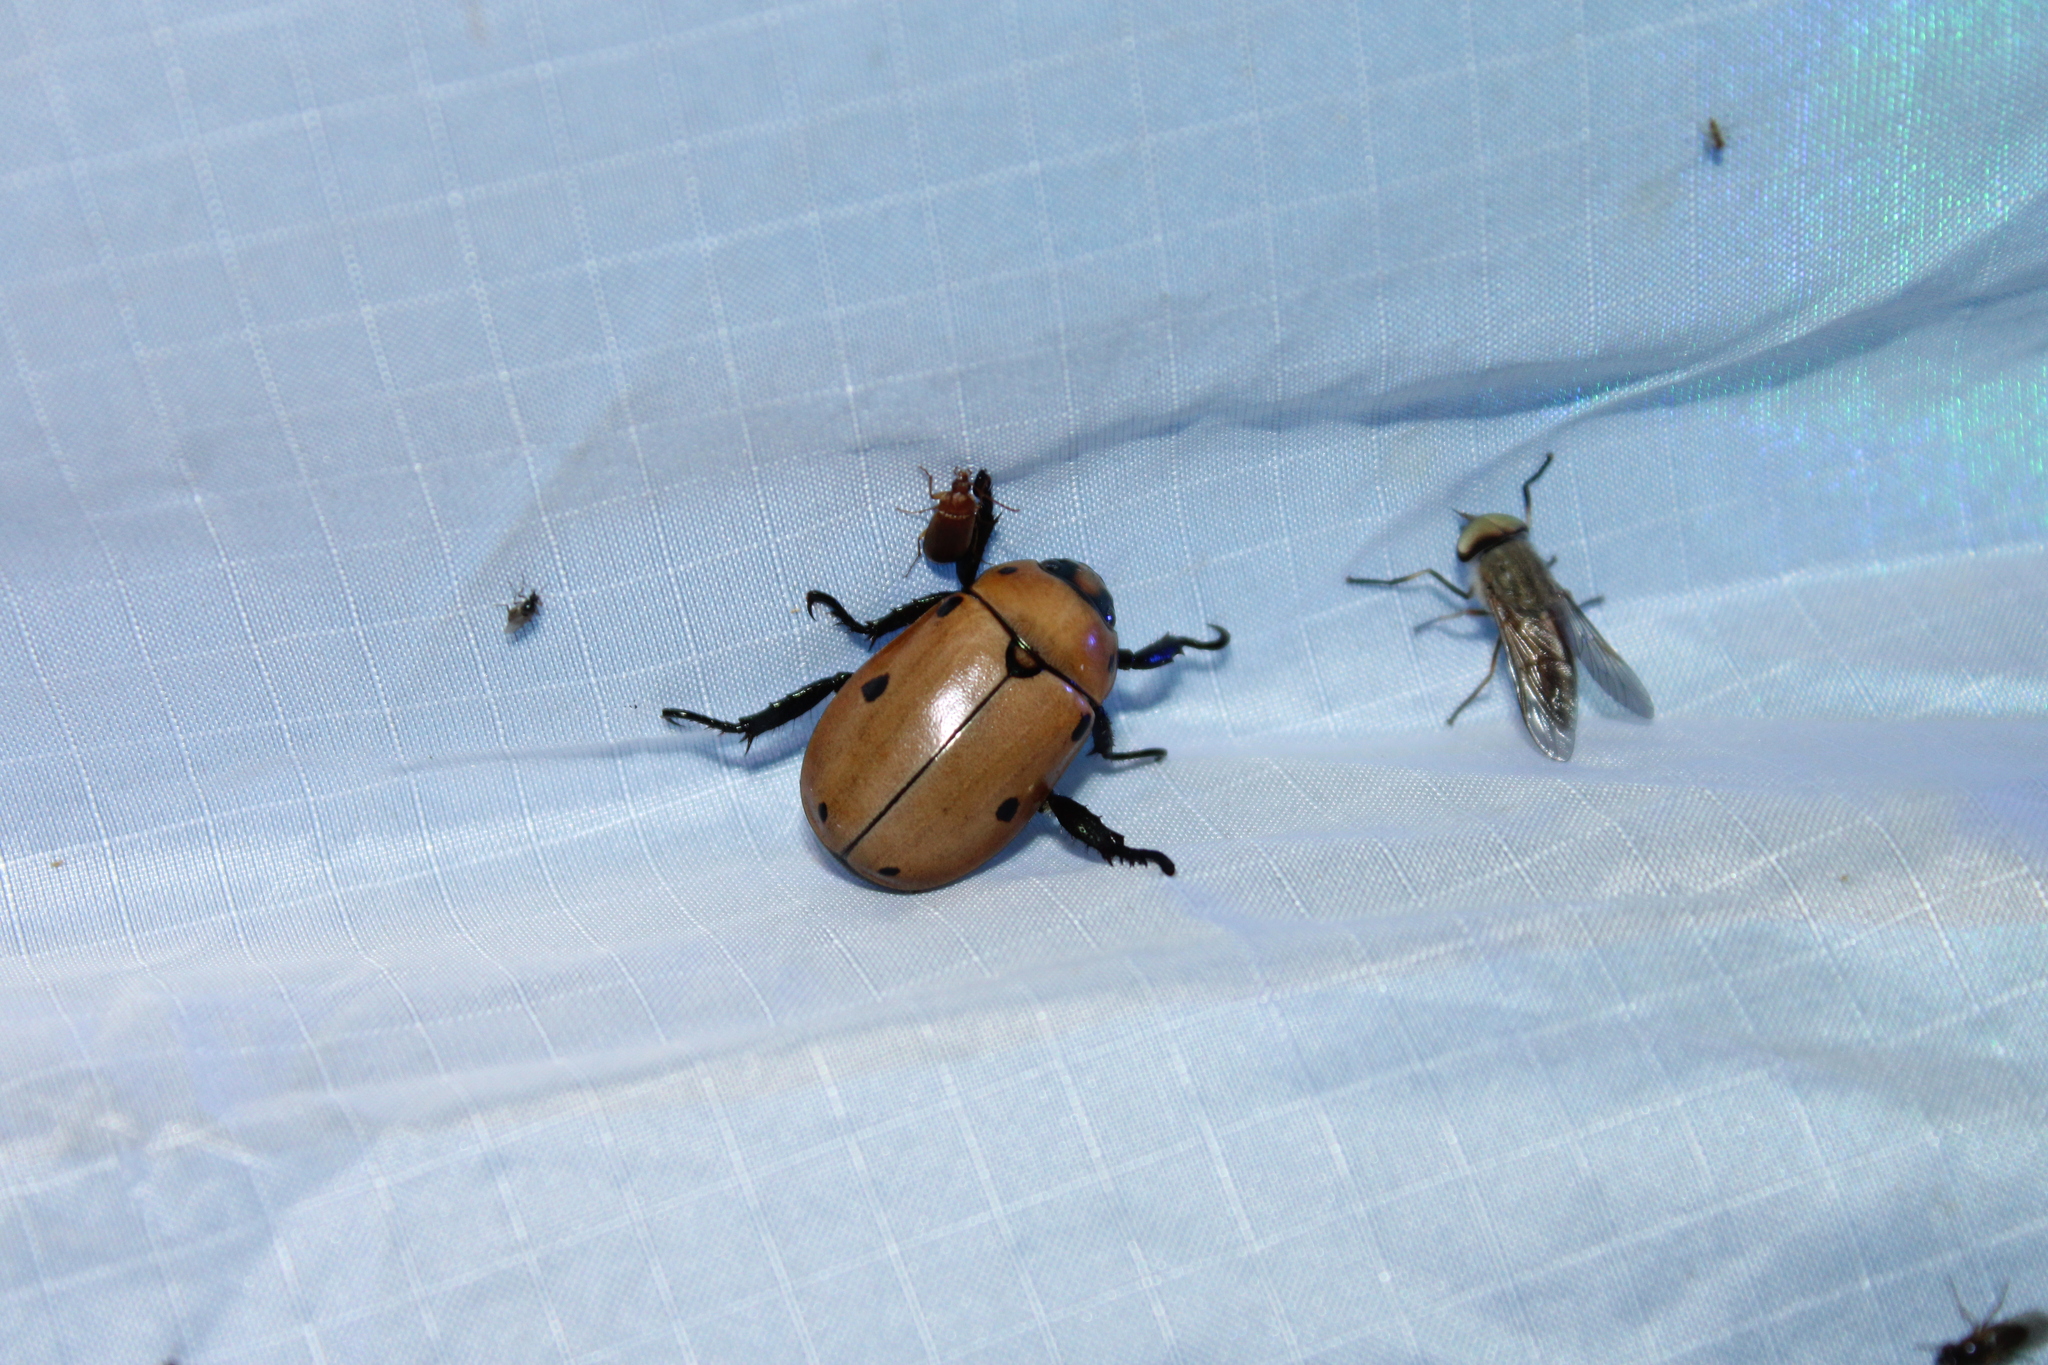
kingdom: Animalia
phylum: Arthropoda
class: Insecta
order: Coleoptera
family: Scarabaeidae
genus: Pelidnota
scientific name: Pelidnota punctata
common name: Grapevine beetle
